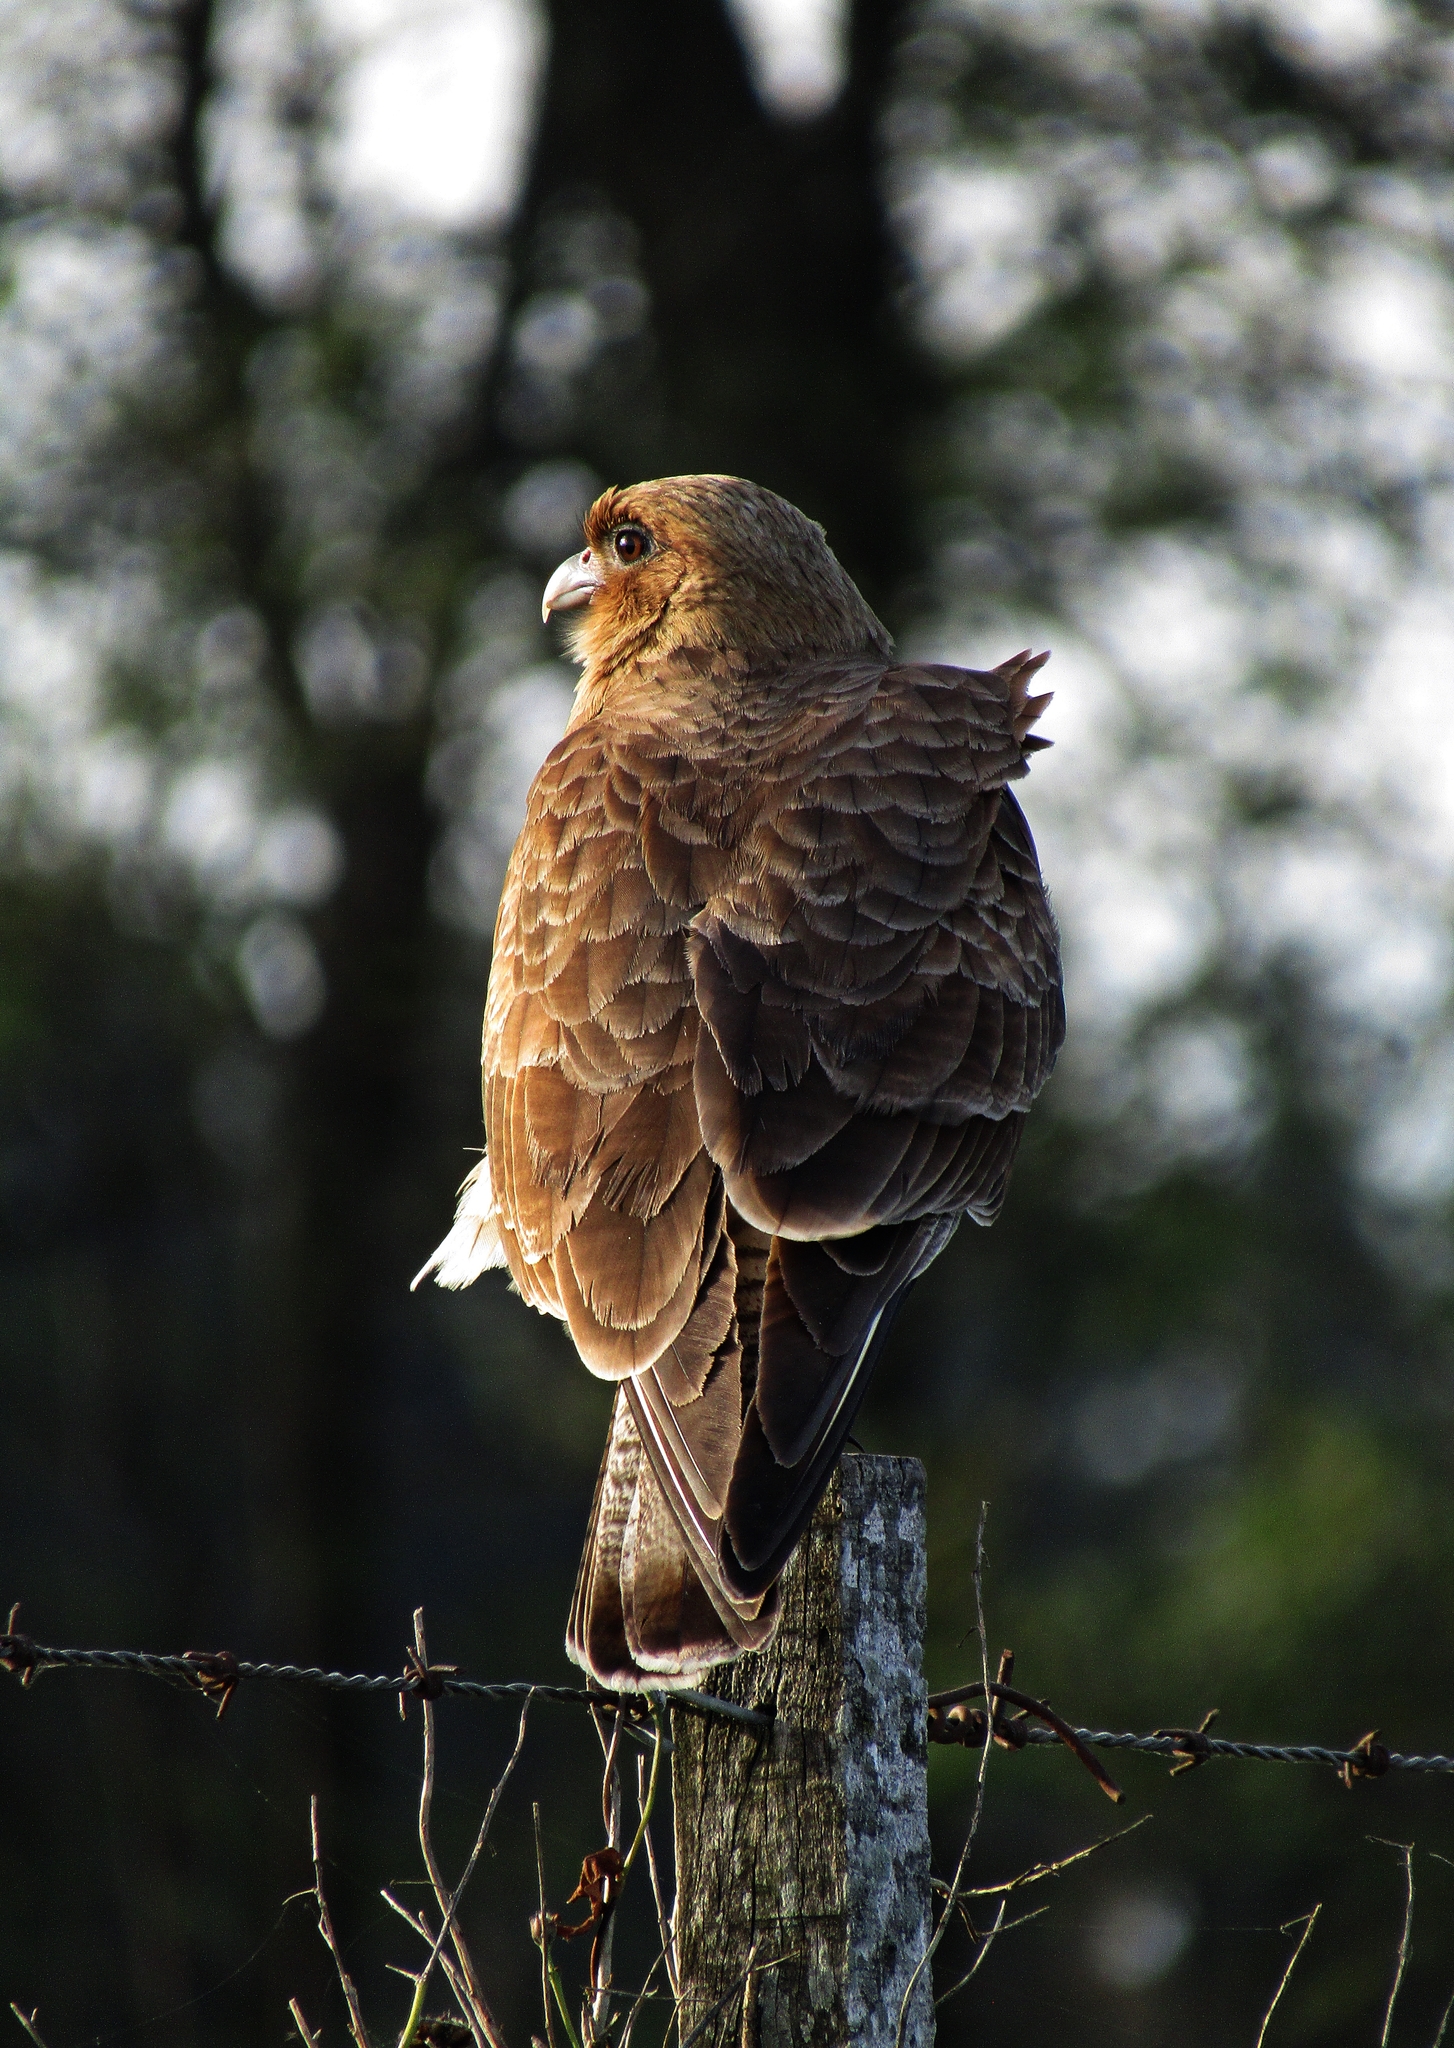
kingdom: Animalia
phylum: Chordata
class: Aves
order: Falconiformes
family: Falconidae
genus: Daptrius
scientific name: Daptrius
